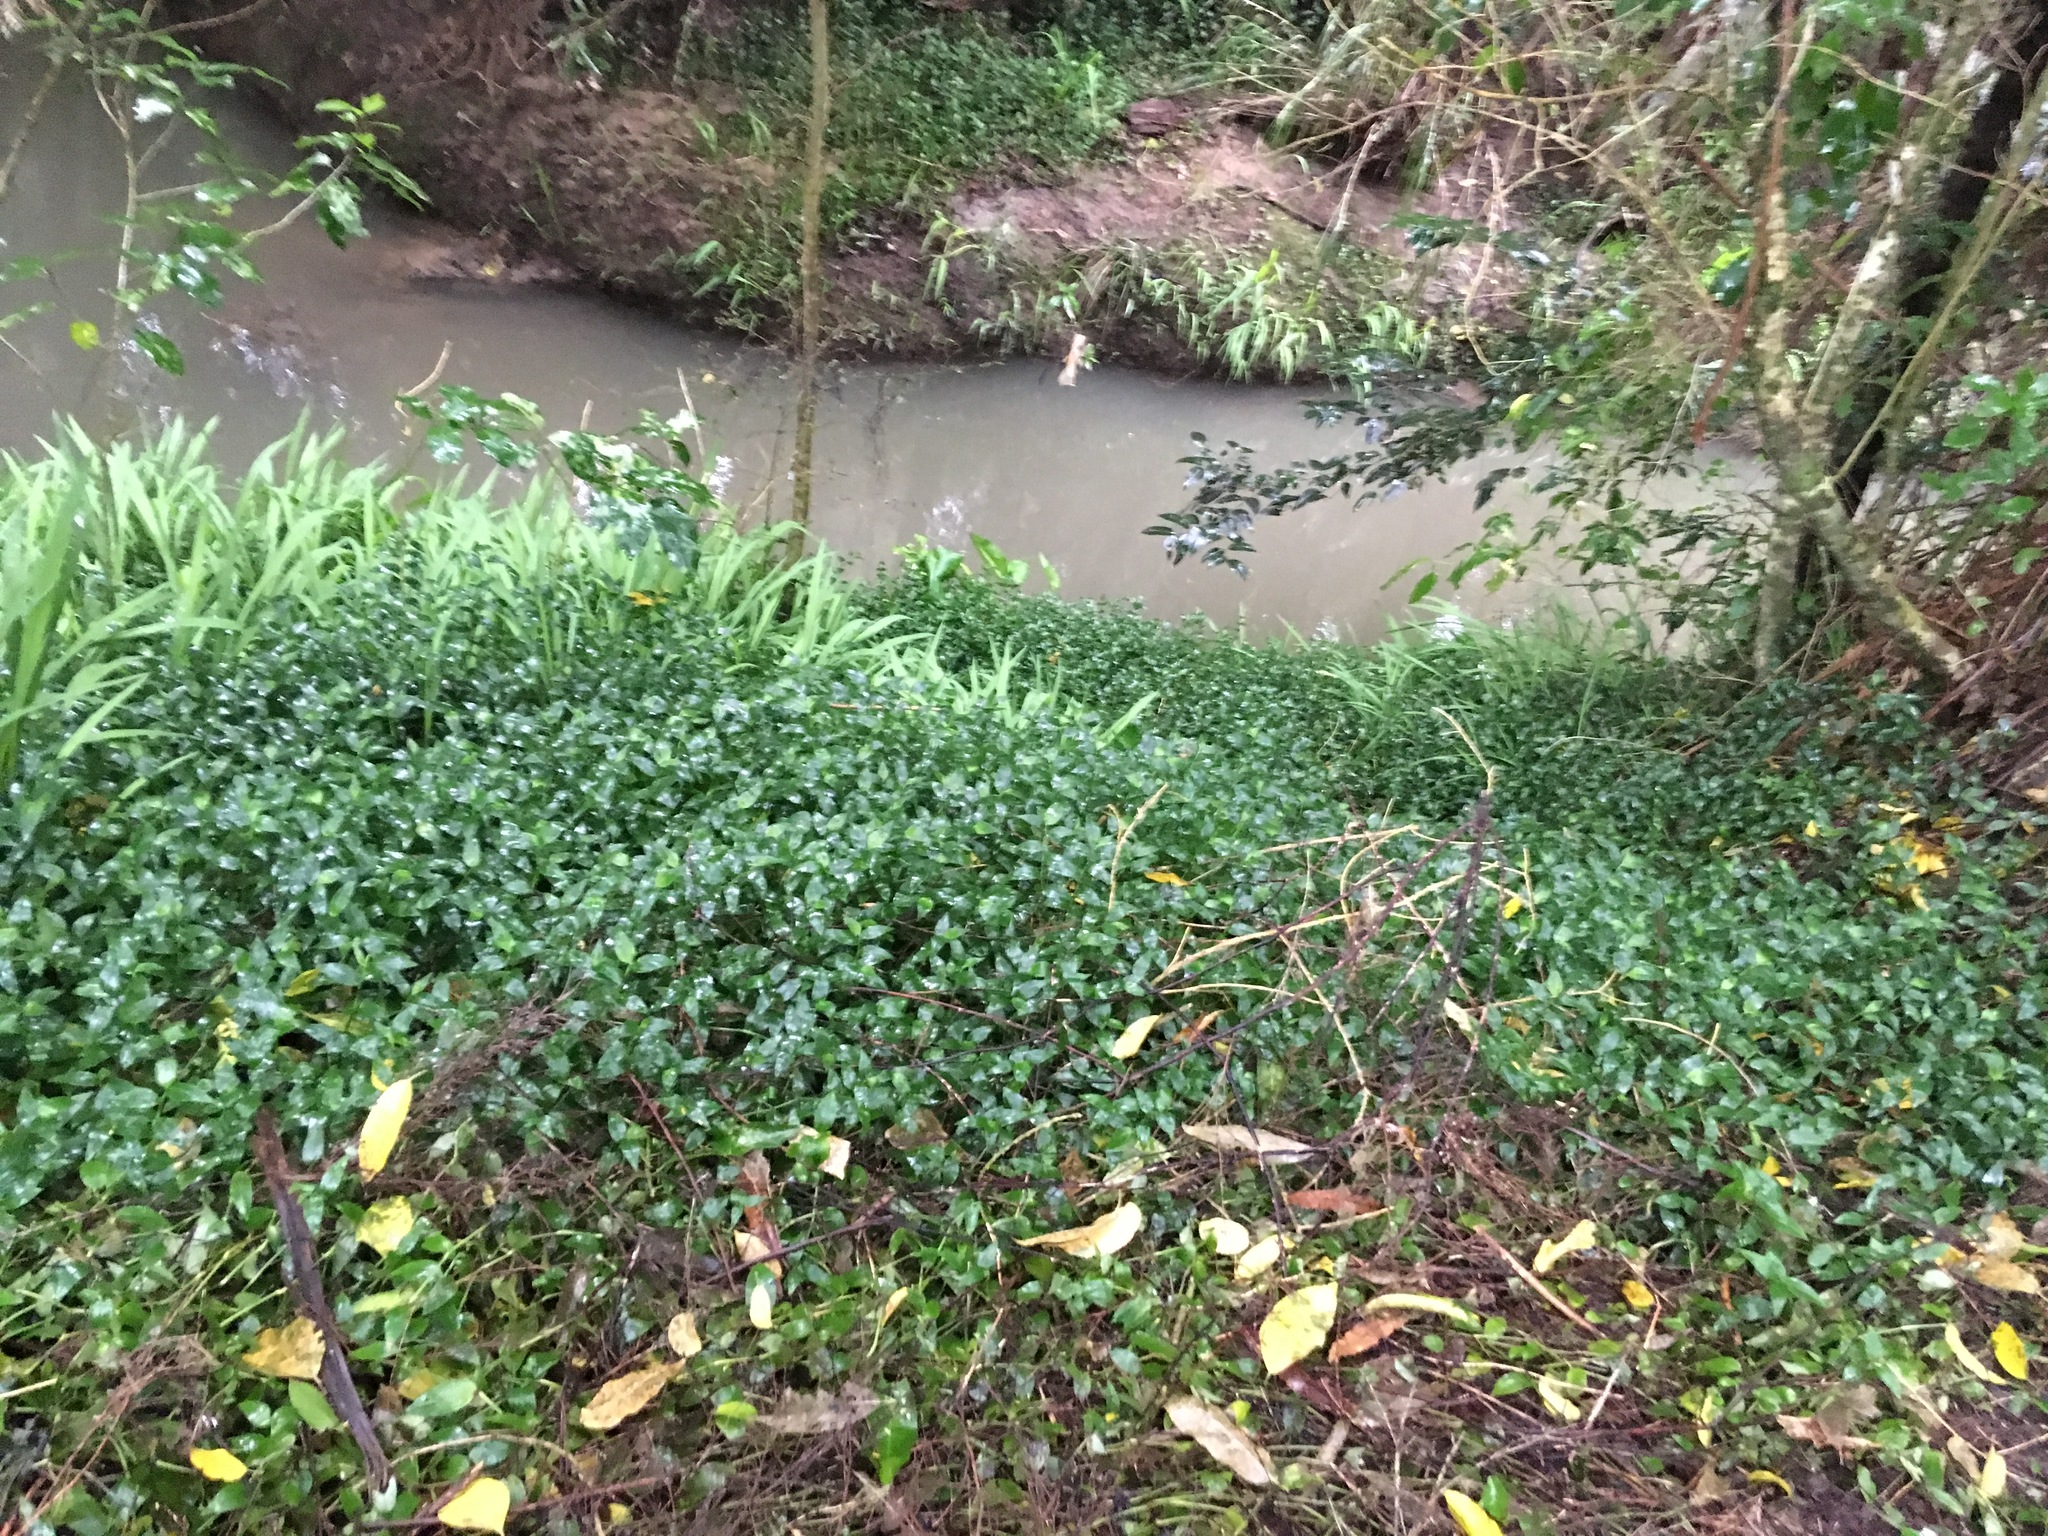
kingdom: Plantae
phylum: Tracheophyta
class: Liliopsida
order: Commelinales
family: Commelinaceae
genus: Tradescantia
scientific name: Tradescantia fluminensis
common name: Wandering-jew
